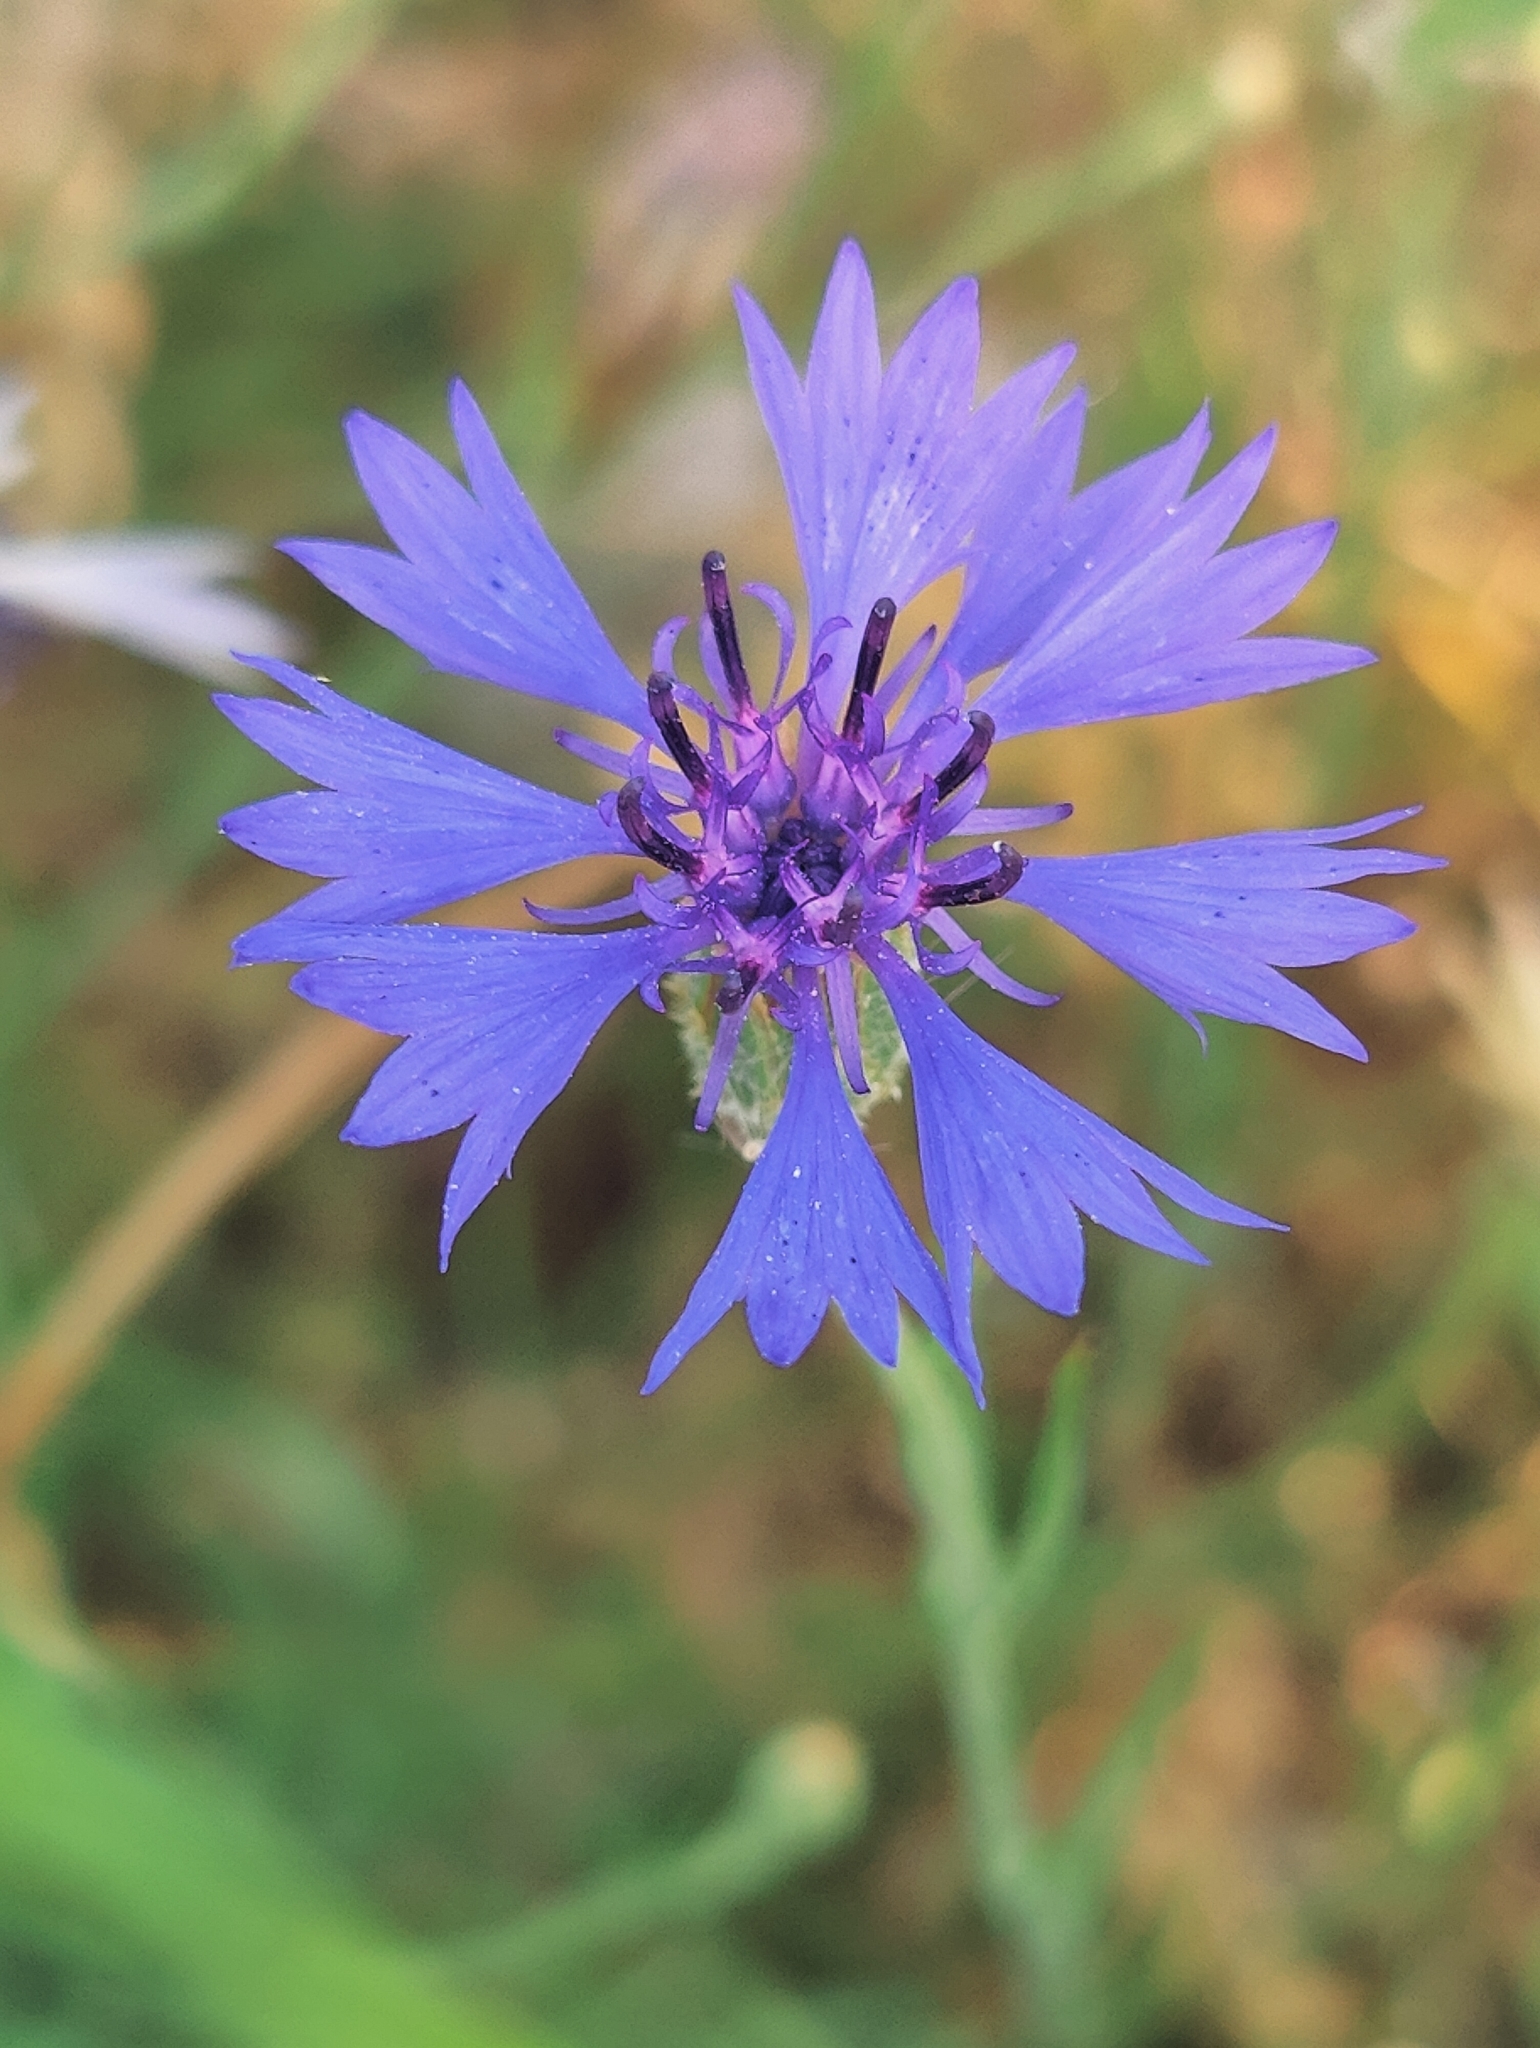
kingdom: Plantae
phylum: Tracheophyta
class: Magnoliopsida
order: Asterales
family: Asteraceae
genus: Centaurea
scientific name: Centaurea cyanus
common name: Cornflower
